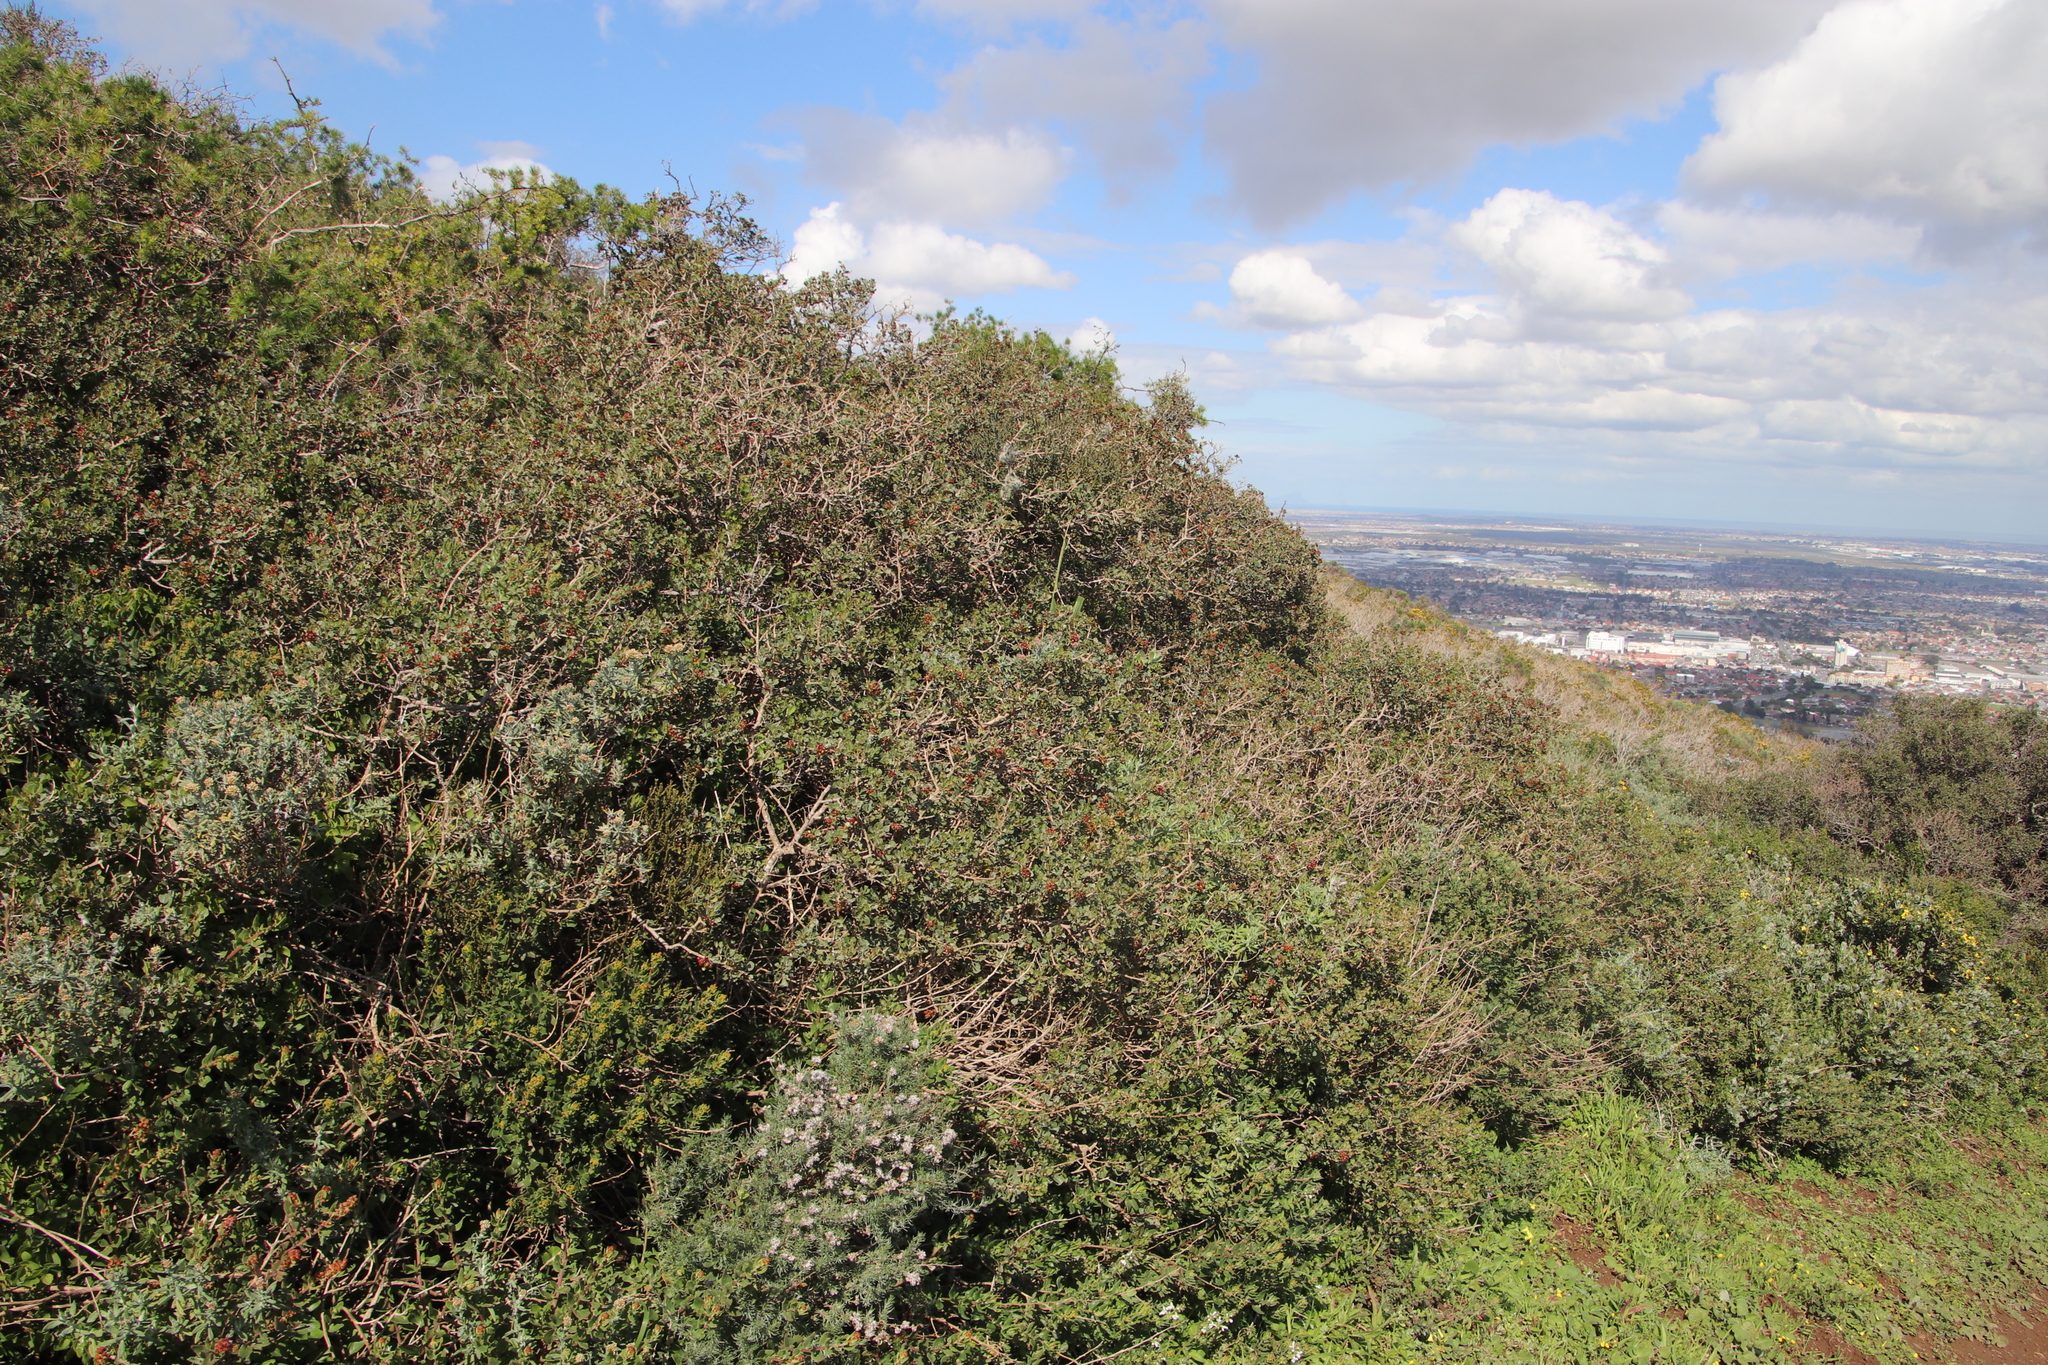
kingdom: Plantae
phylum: Tracheophyta
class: Magnoliopsida
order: Sapindales
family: Anacardiaceae
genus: Searsia
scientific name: Searsia glauca
